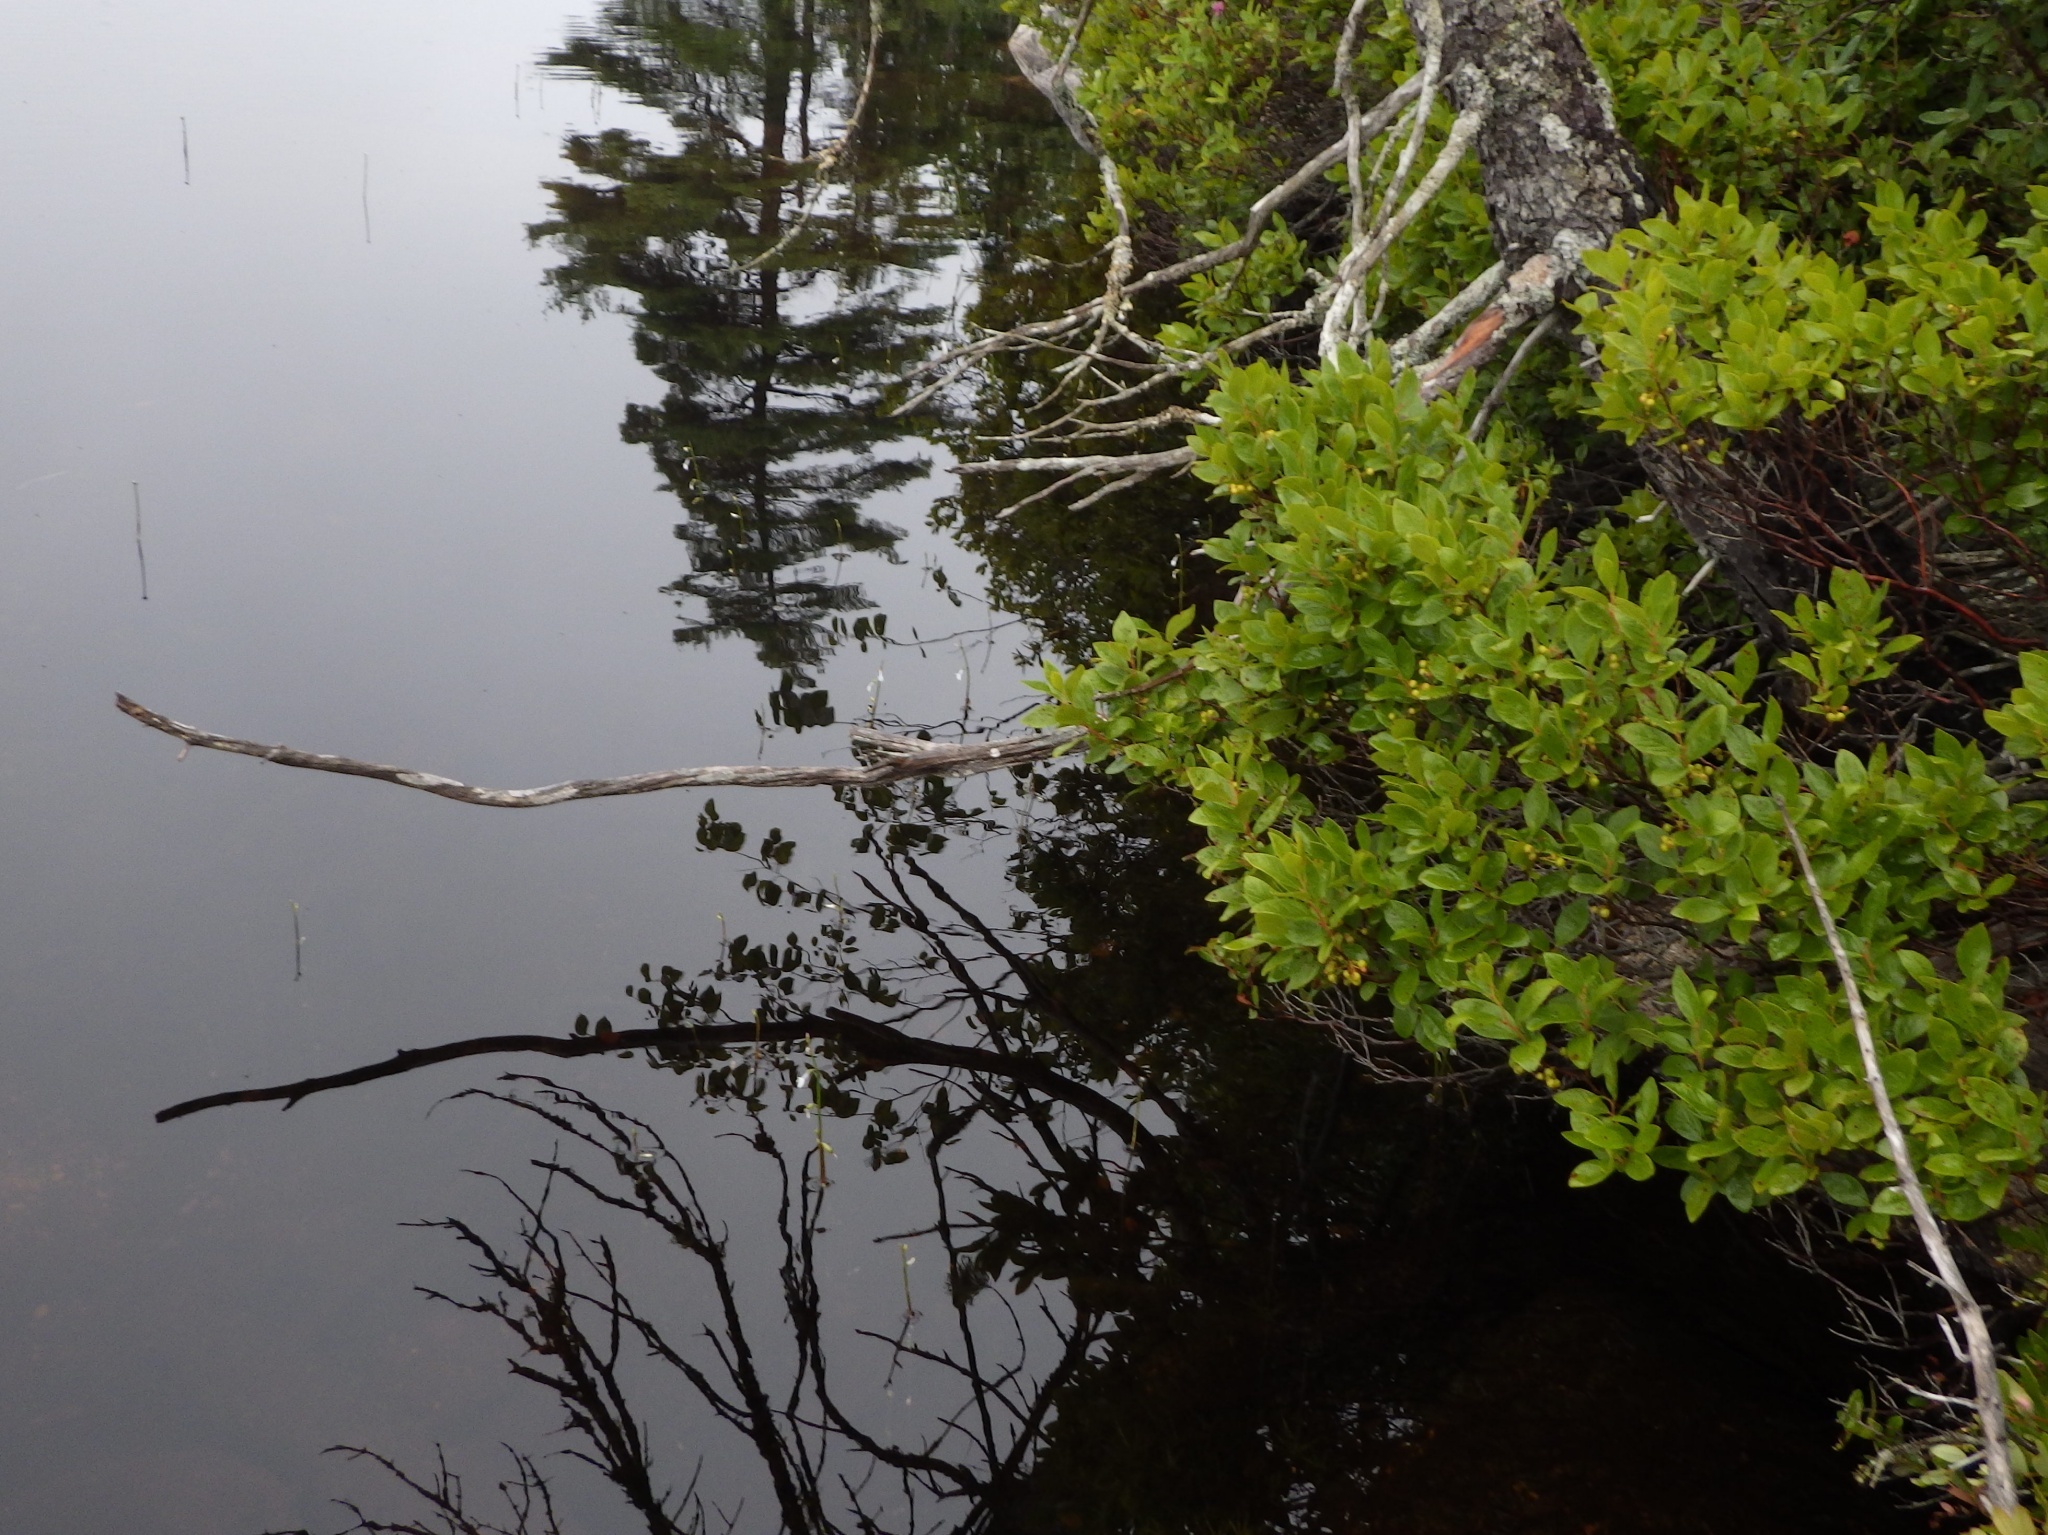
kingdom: Plantae
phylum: Tracheophyta
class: Magnoliopsida
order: Ericales
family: Ericaceae
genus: Gaylussacia
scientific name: Gaylussacia baccata
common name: Black huckleberry
